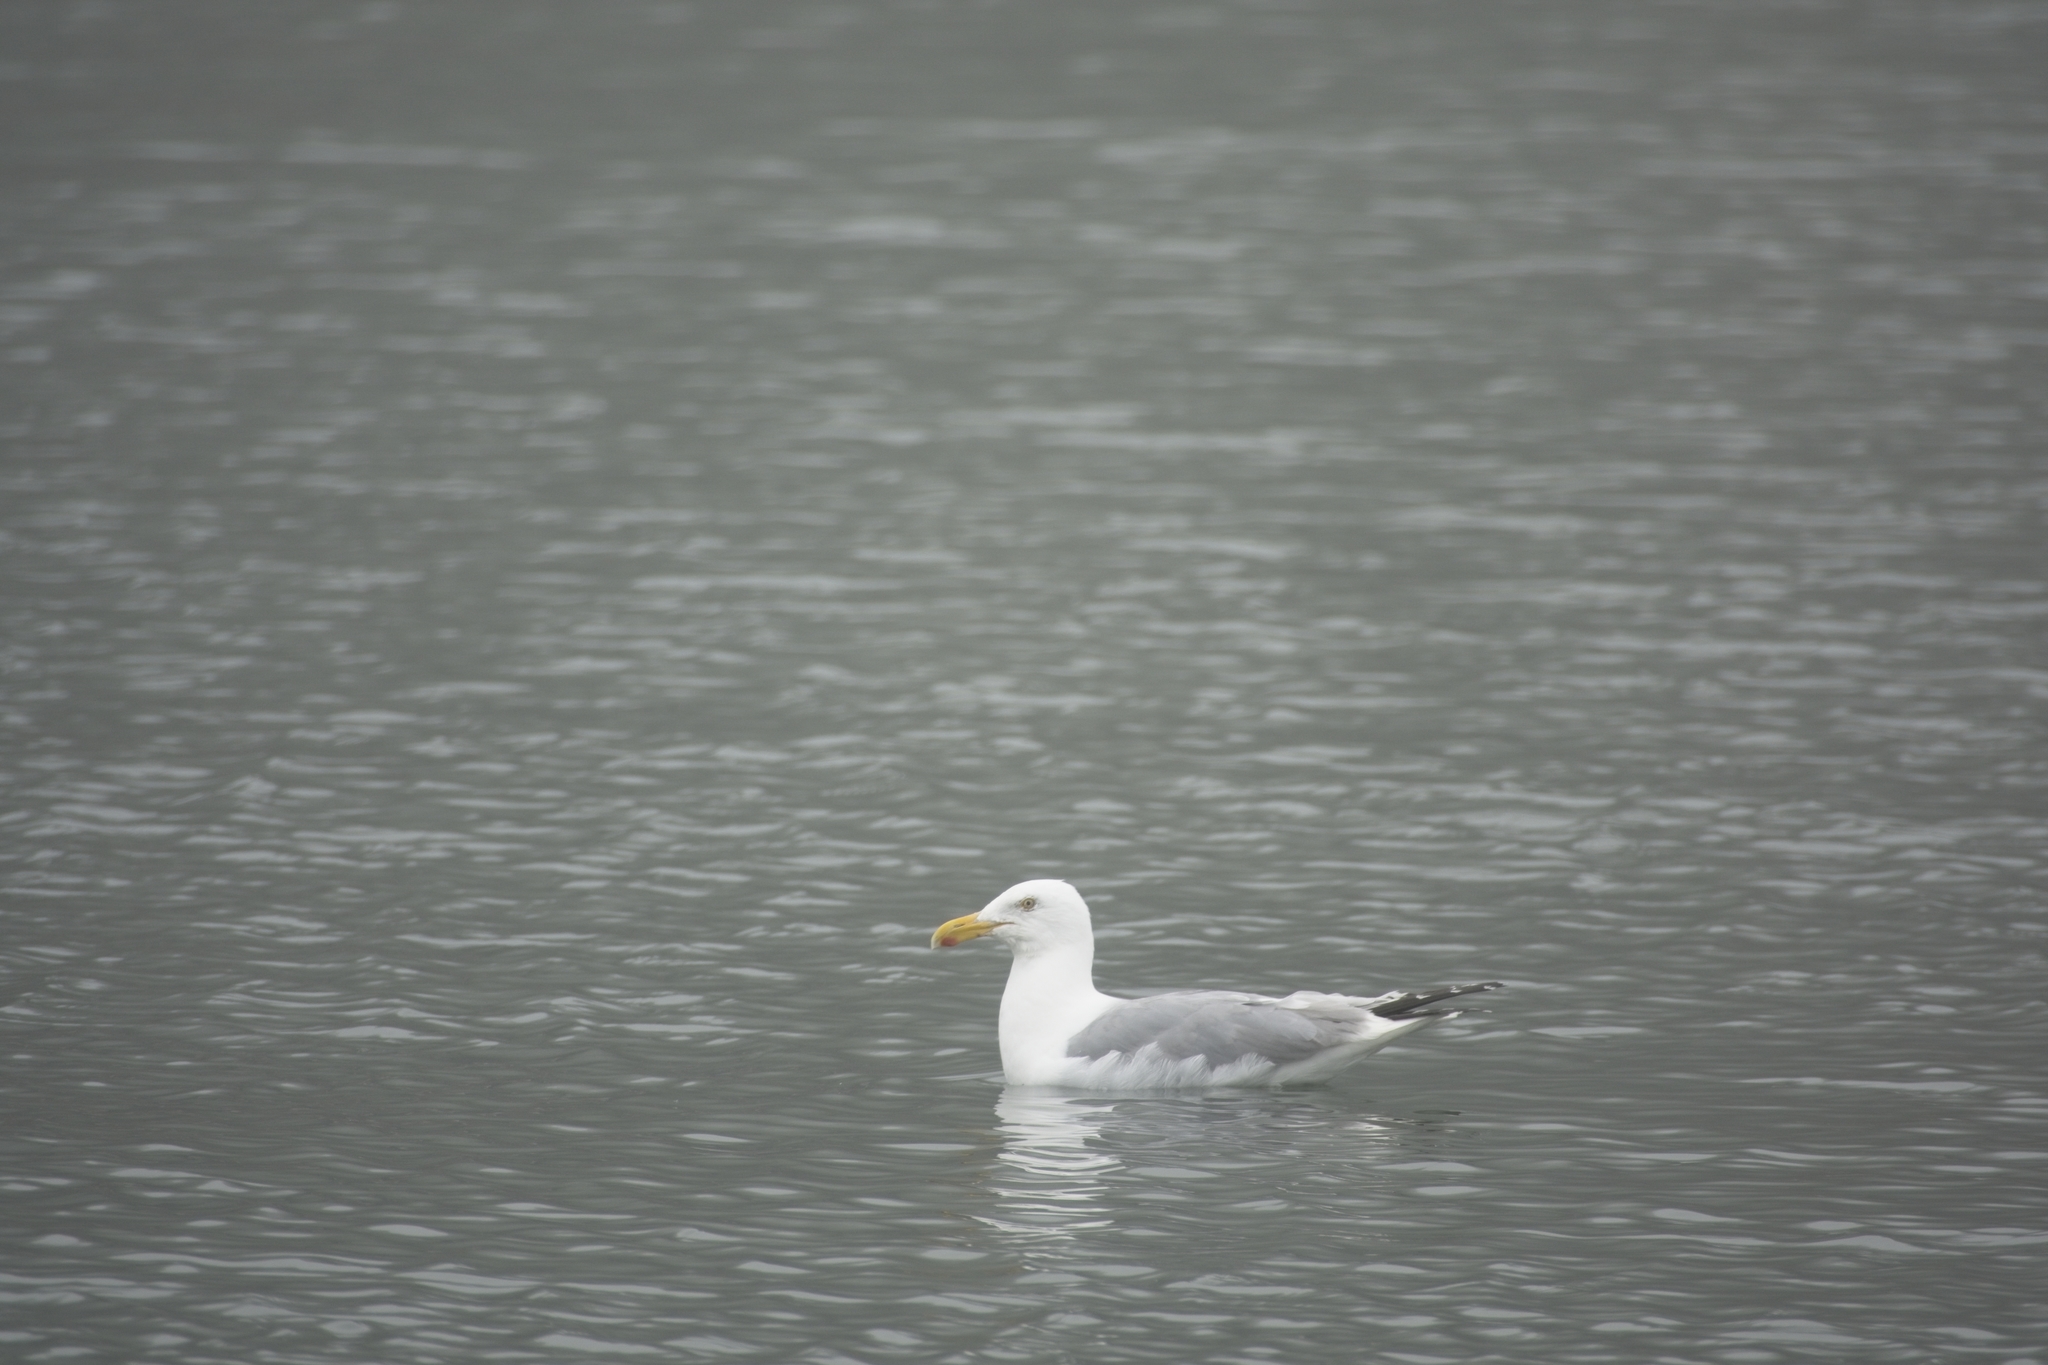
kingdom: Animalia
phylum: Chordata
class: Aves
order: Charadriiformes
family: Laridae
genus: Larus
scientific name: Larus argentatus
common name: Herring gull
